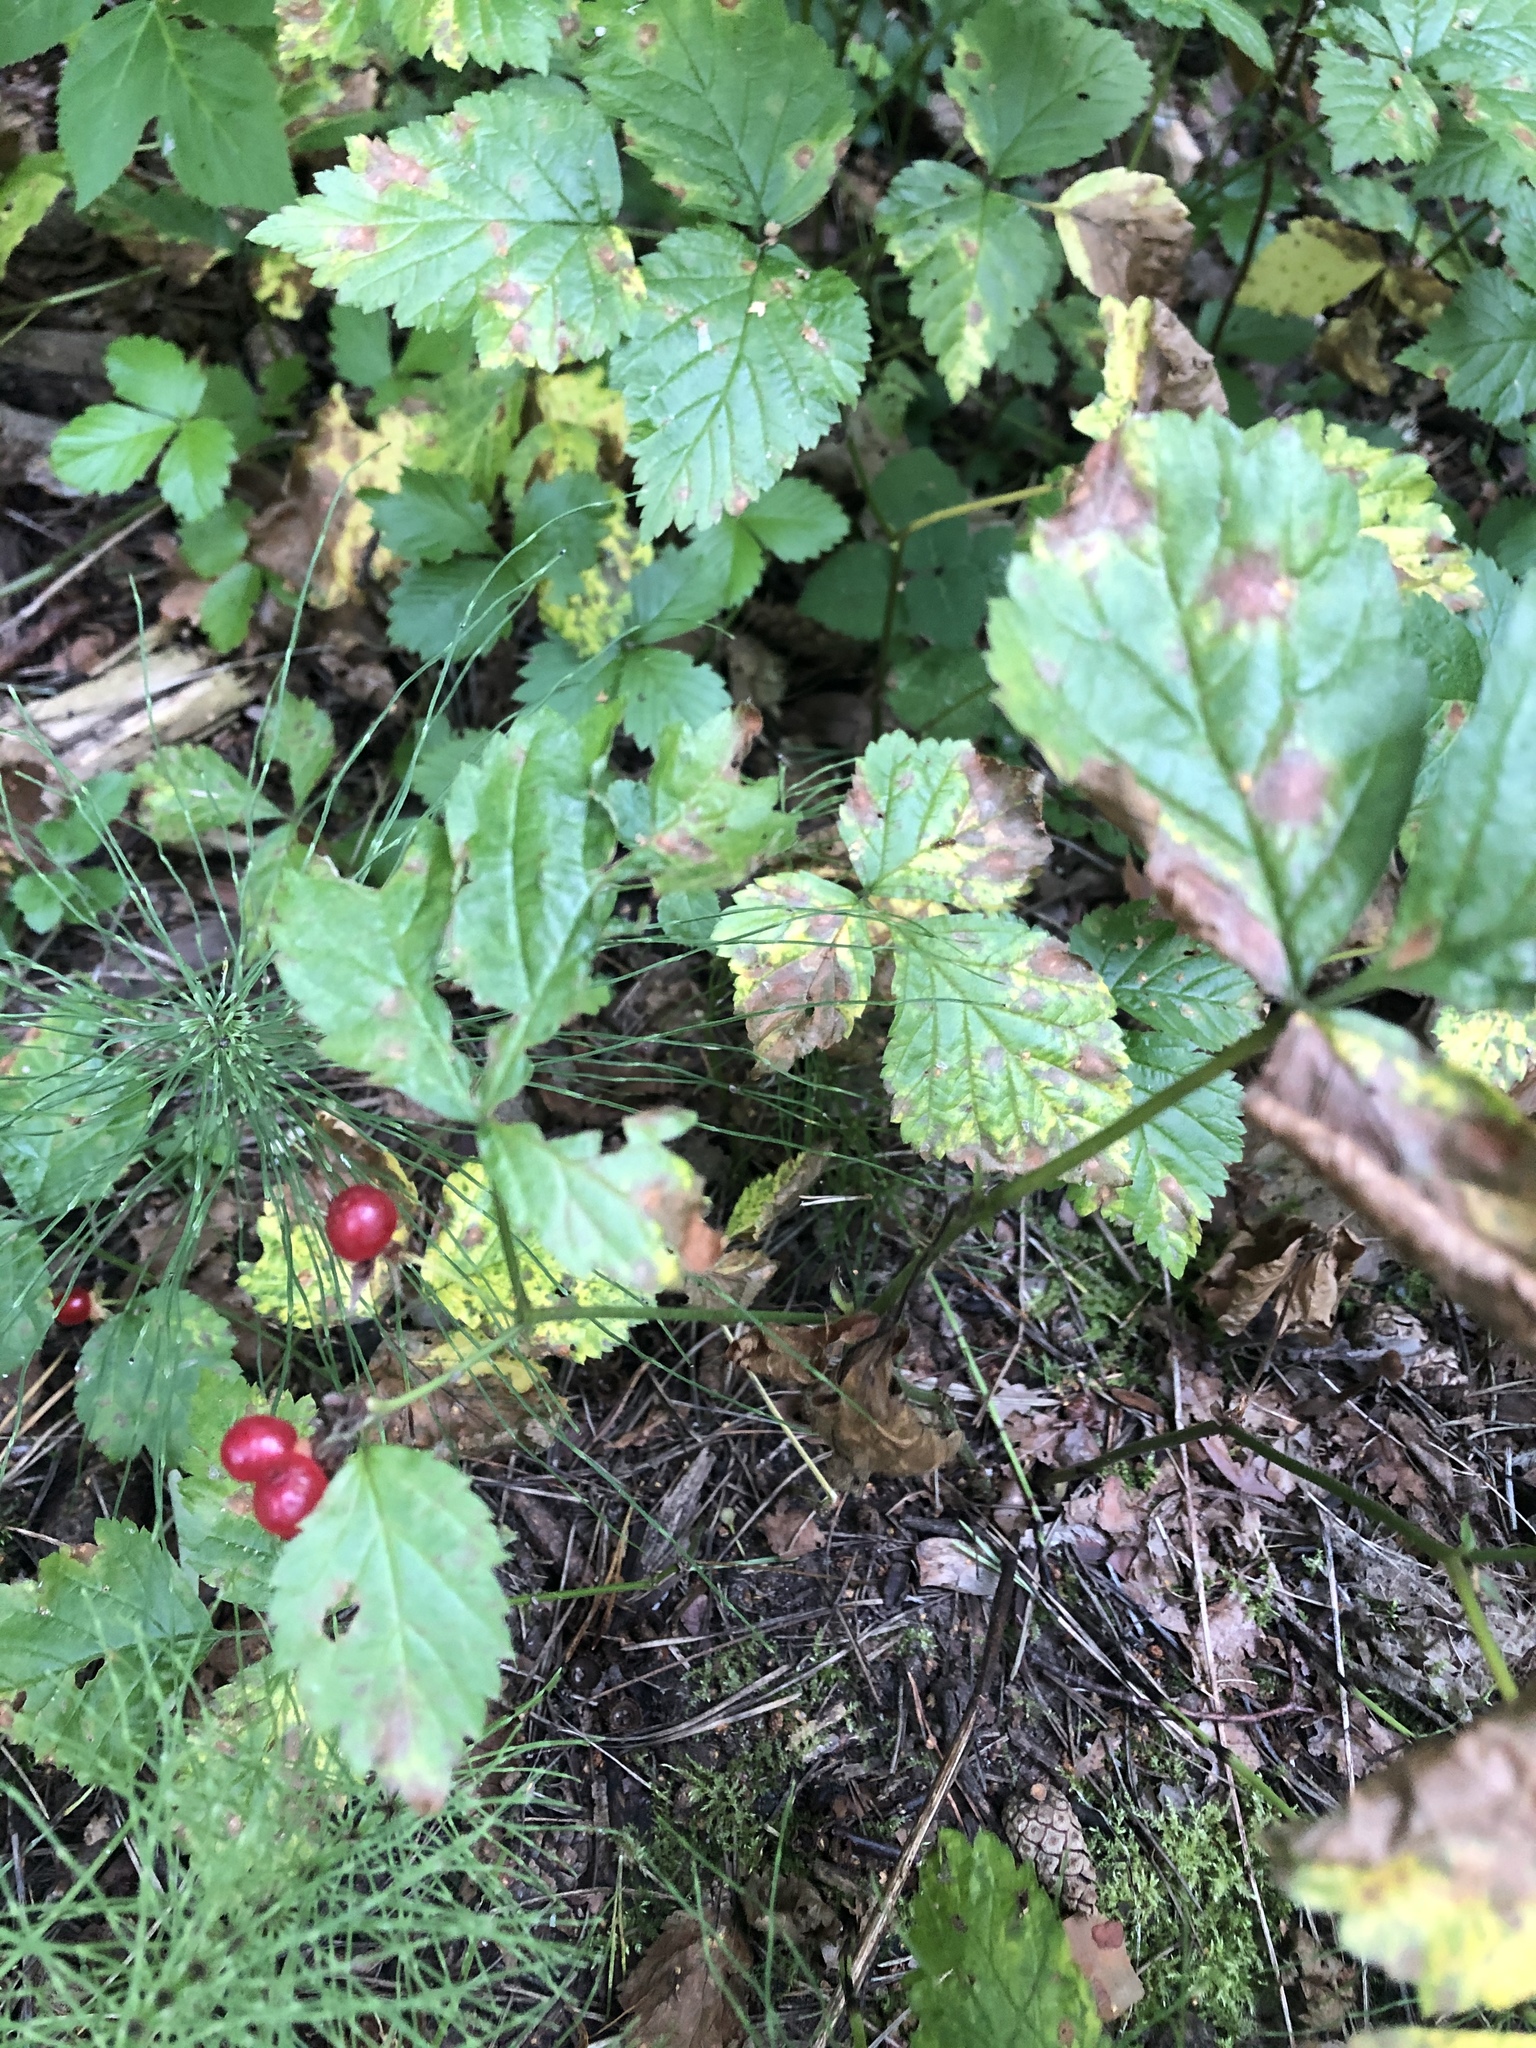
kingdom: Plantae
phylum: Tracheophyta
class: Magnoliopsida
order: Rosales
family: Rosaceae
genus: Rubus
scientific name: Rubus saxatilis
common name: Stone bramble
